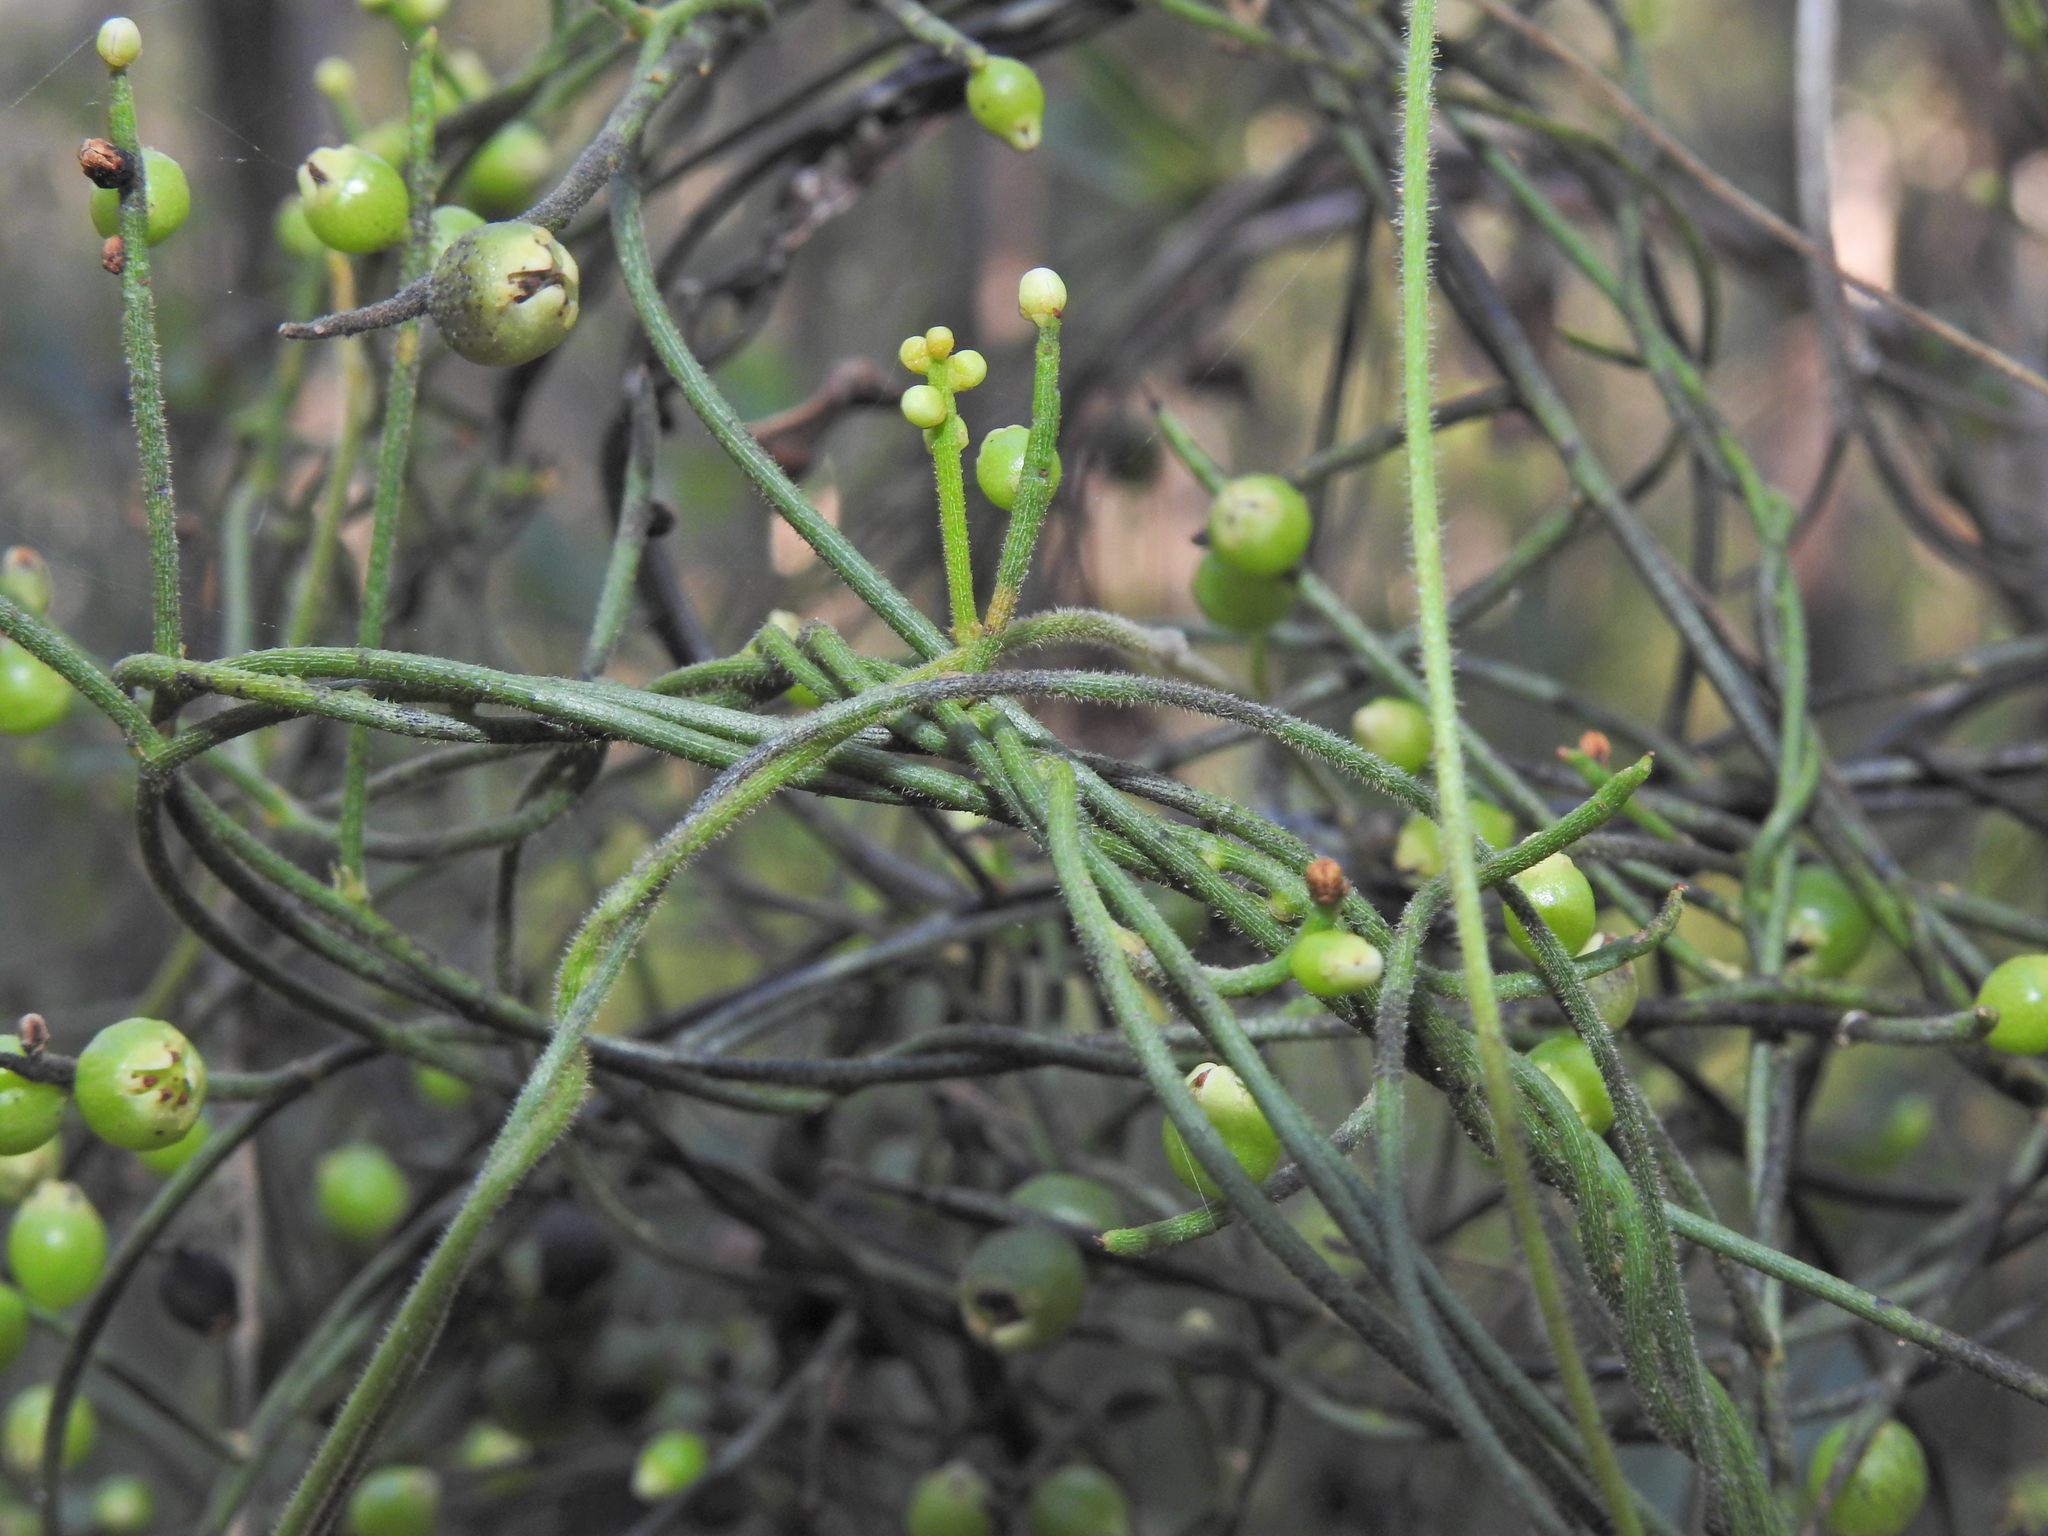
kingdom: Plantae
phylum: Tracheophyta
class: Magnoliopsida
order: Laurales
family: Lauraceae
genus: Cassytha
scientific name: Cassytha filiformis
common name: Dodder-laurel
